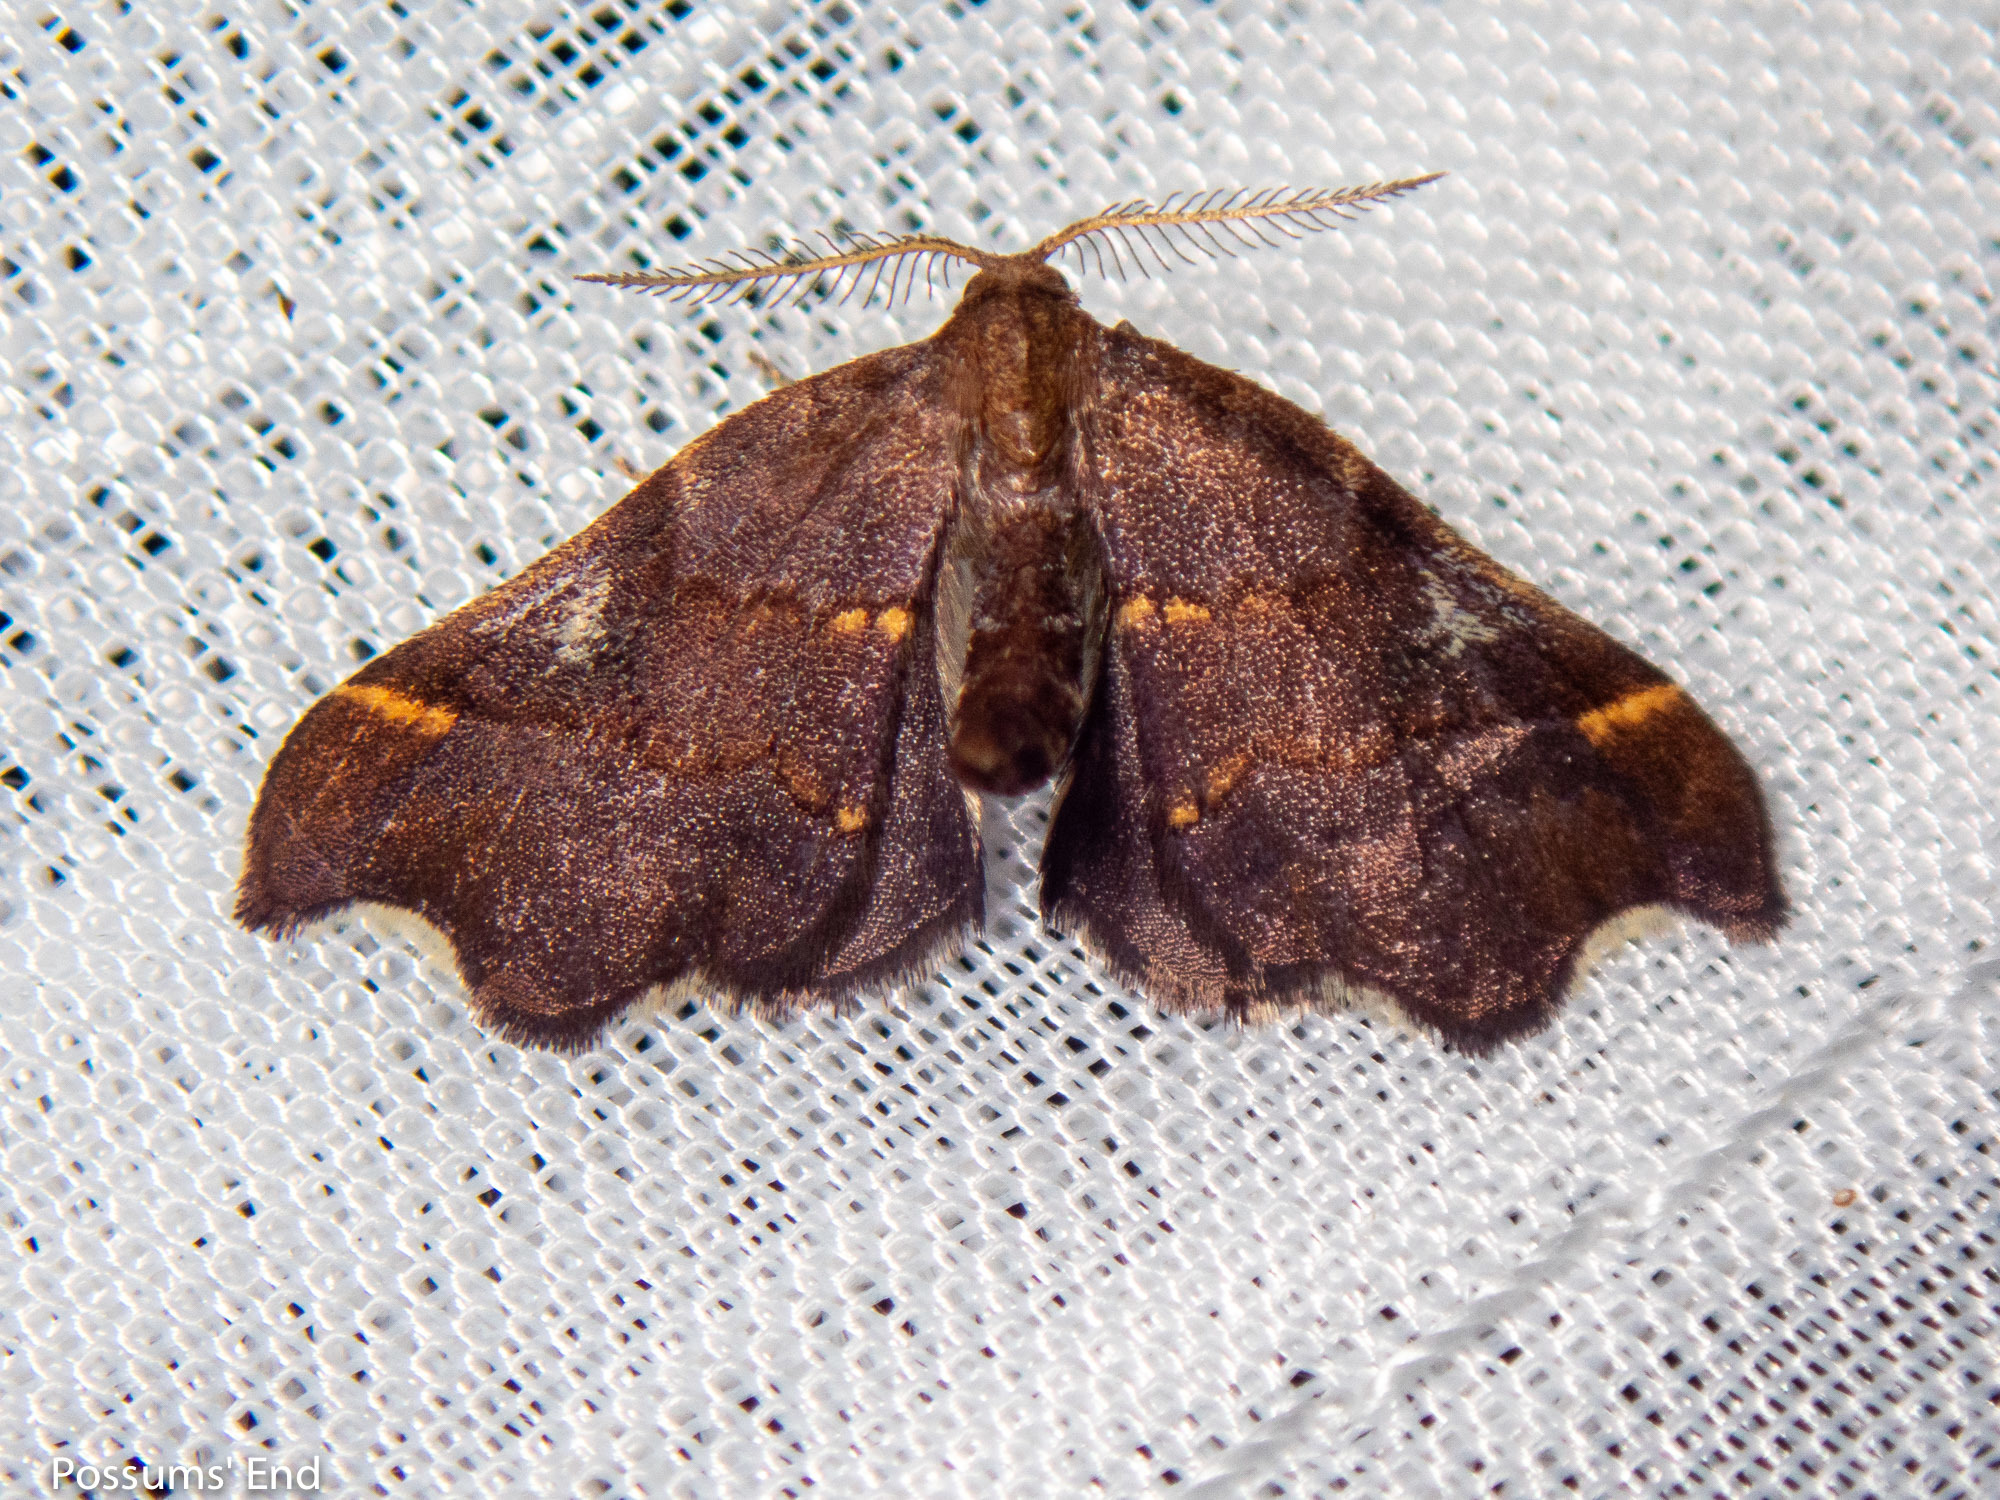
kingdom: Animalia
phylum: Arthropoda
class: Insecta
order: Lepidoptera
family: Geometridae
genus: Paradetis
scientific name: Paradetis porphyrias
